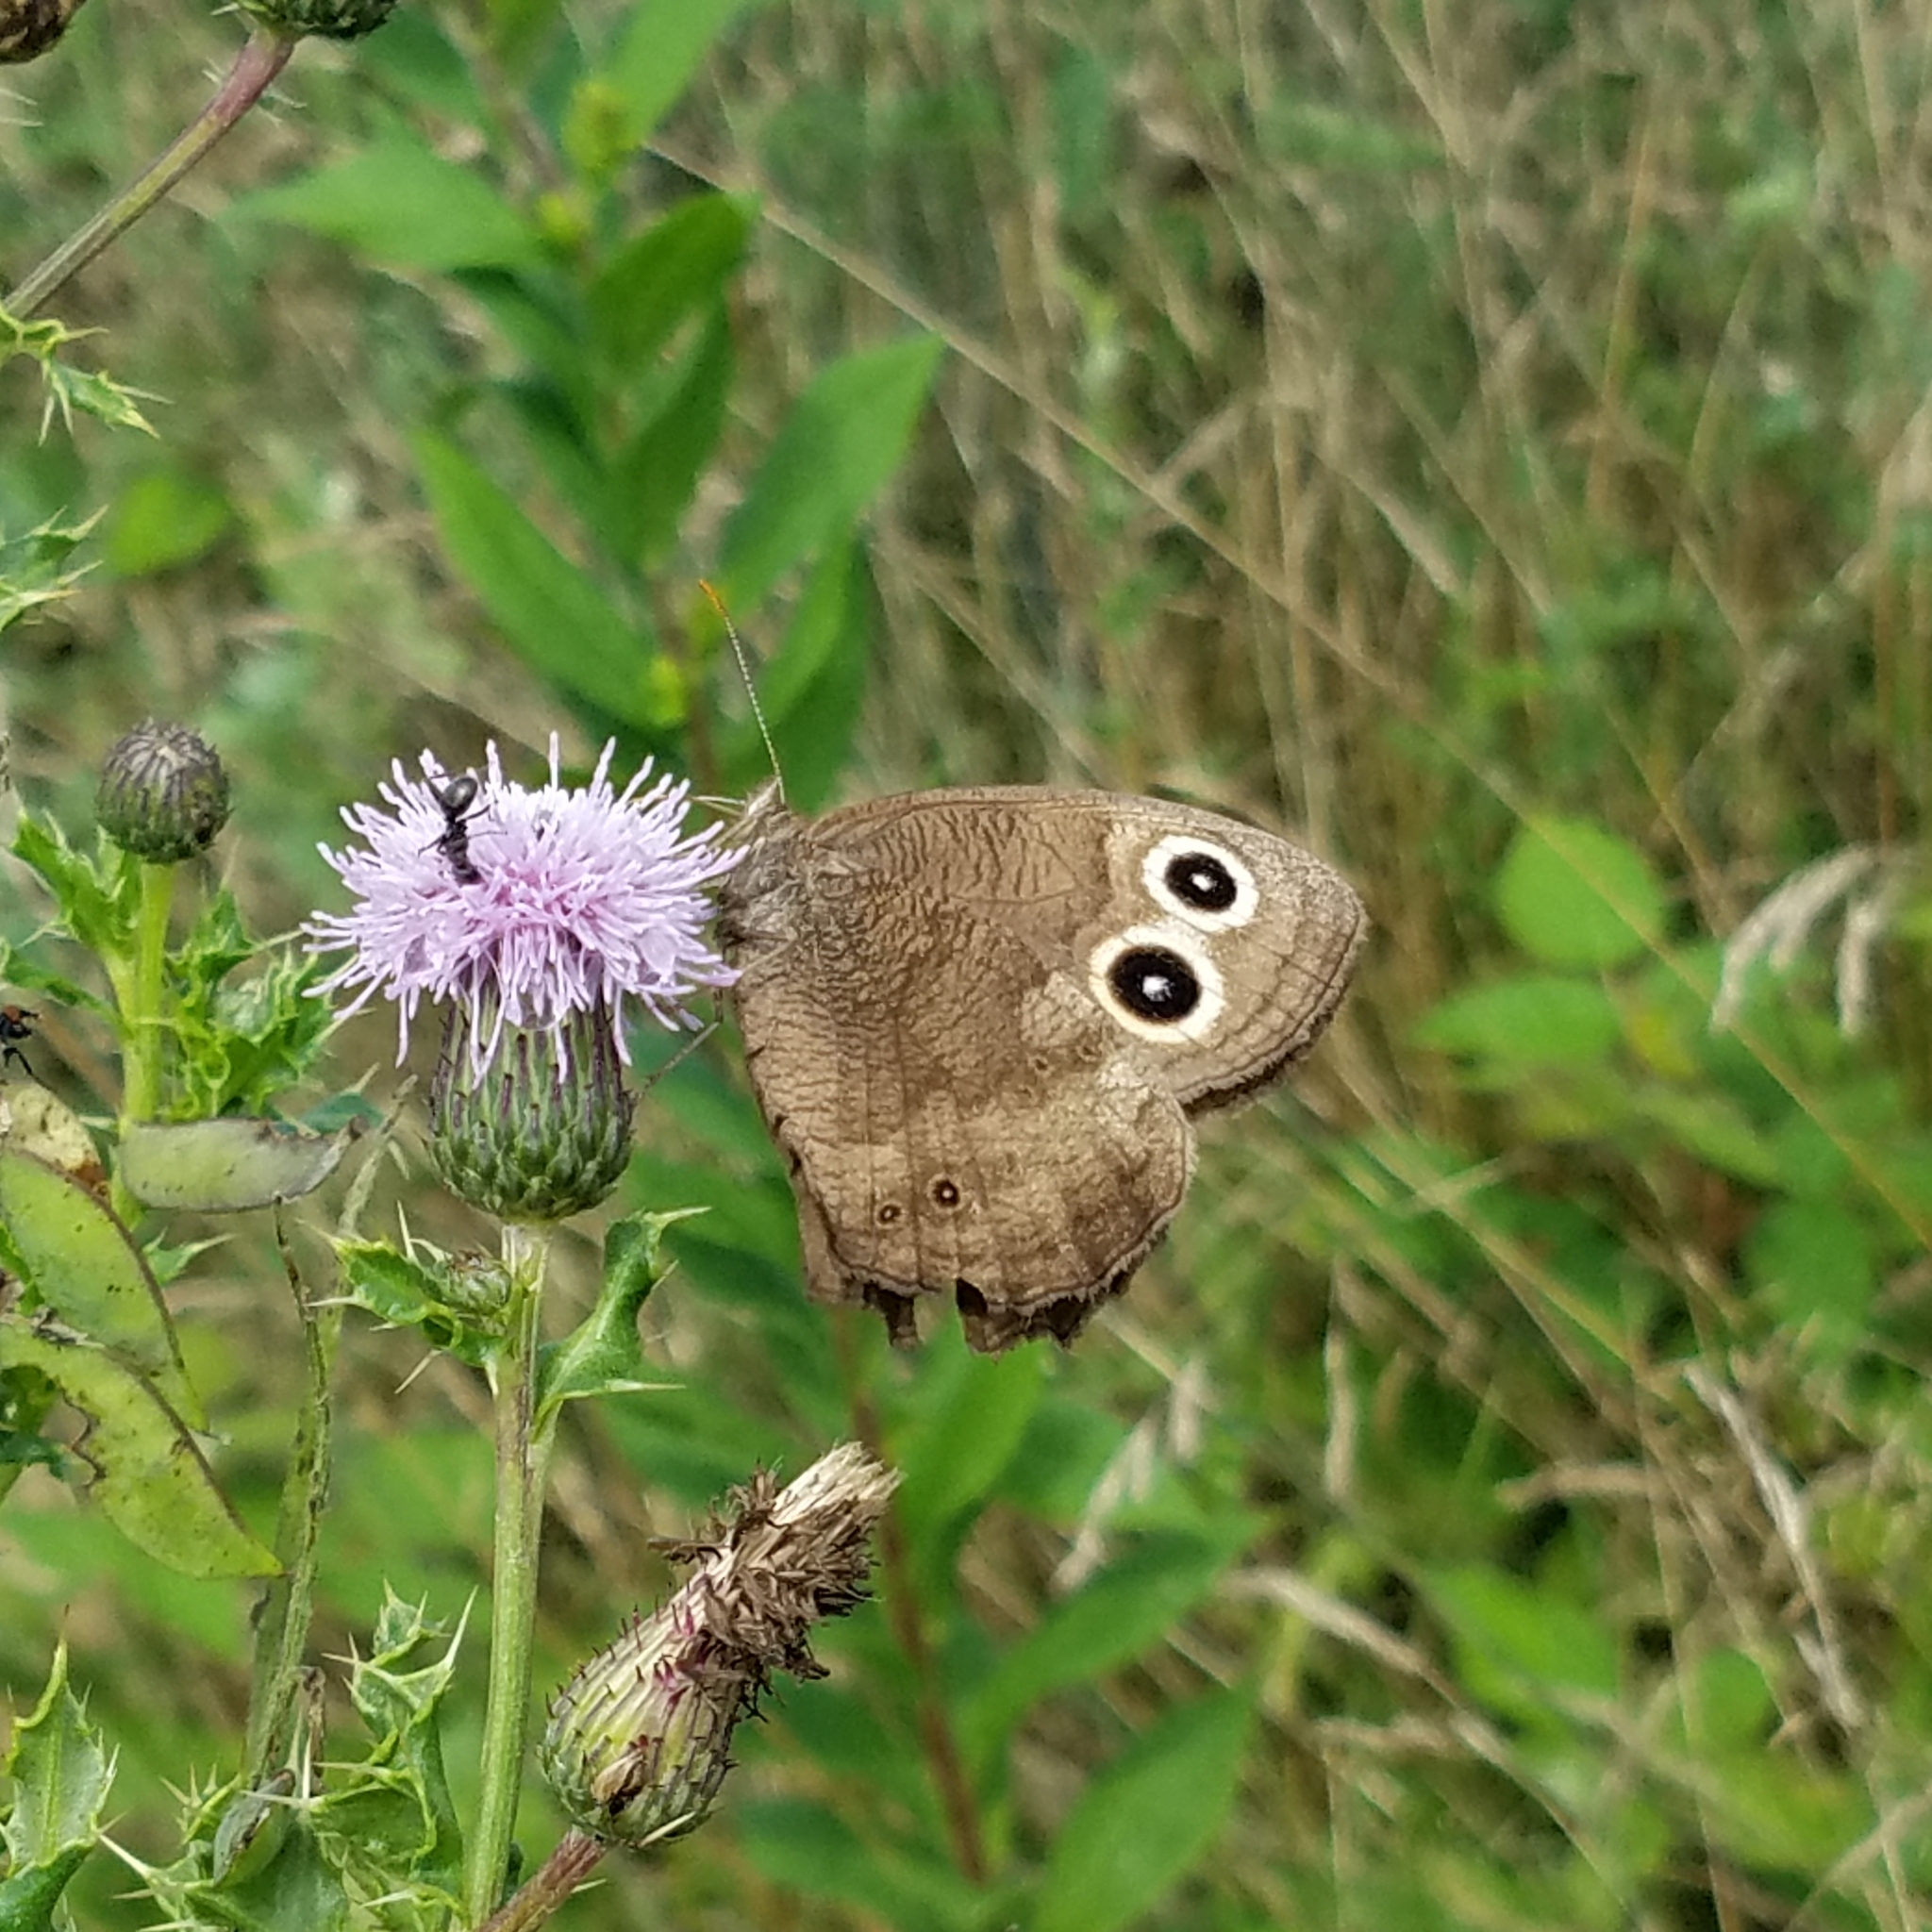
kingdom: Animalia
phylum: Arthropoda
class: Insecta
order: Lepidoptera
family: Nymphalidae
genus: Cercyonis
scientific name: Cercyonis pegala
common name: Common wood-nymph
